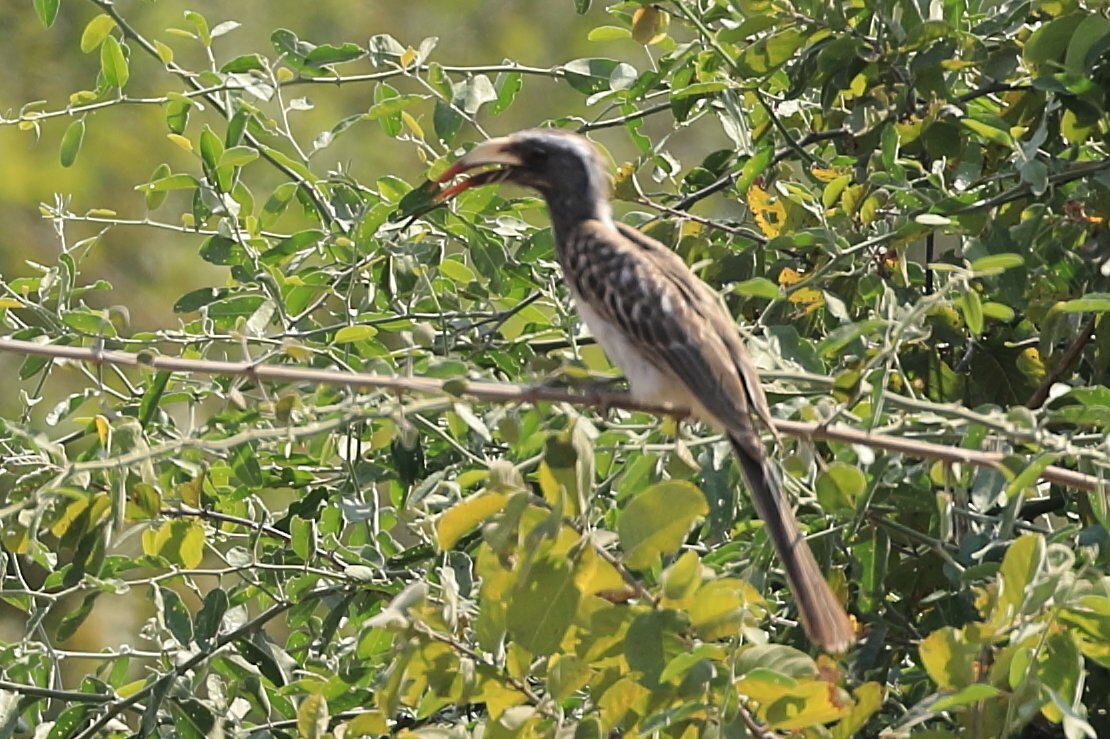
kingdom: Animalia
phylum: Chordata
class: Aves
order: Bucerotiformes
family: Bucerotidae
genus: Lophoceros
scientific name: Lophoceros nasutus
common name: African grey hornbill
